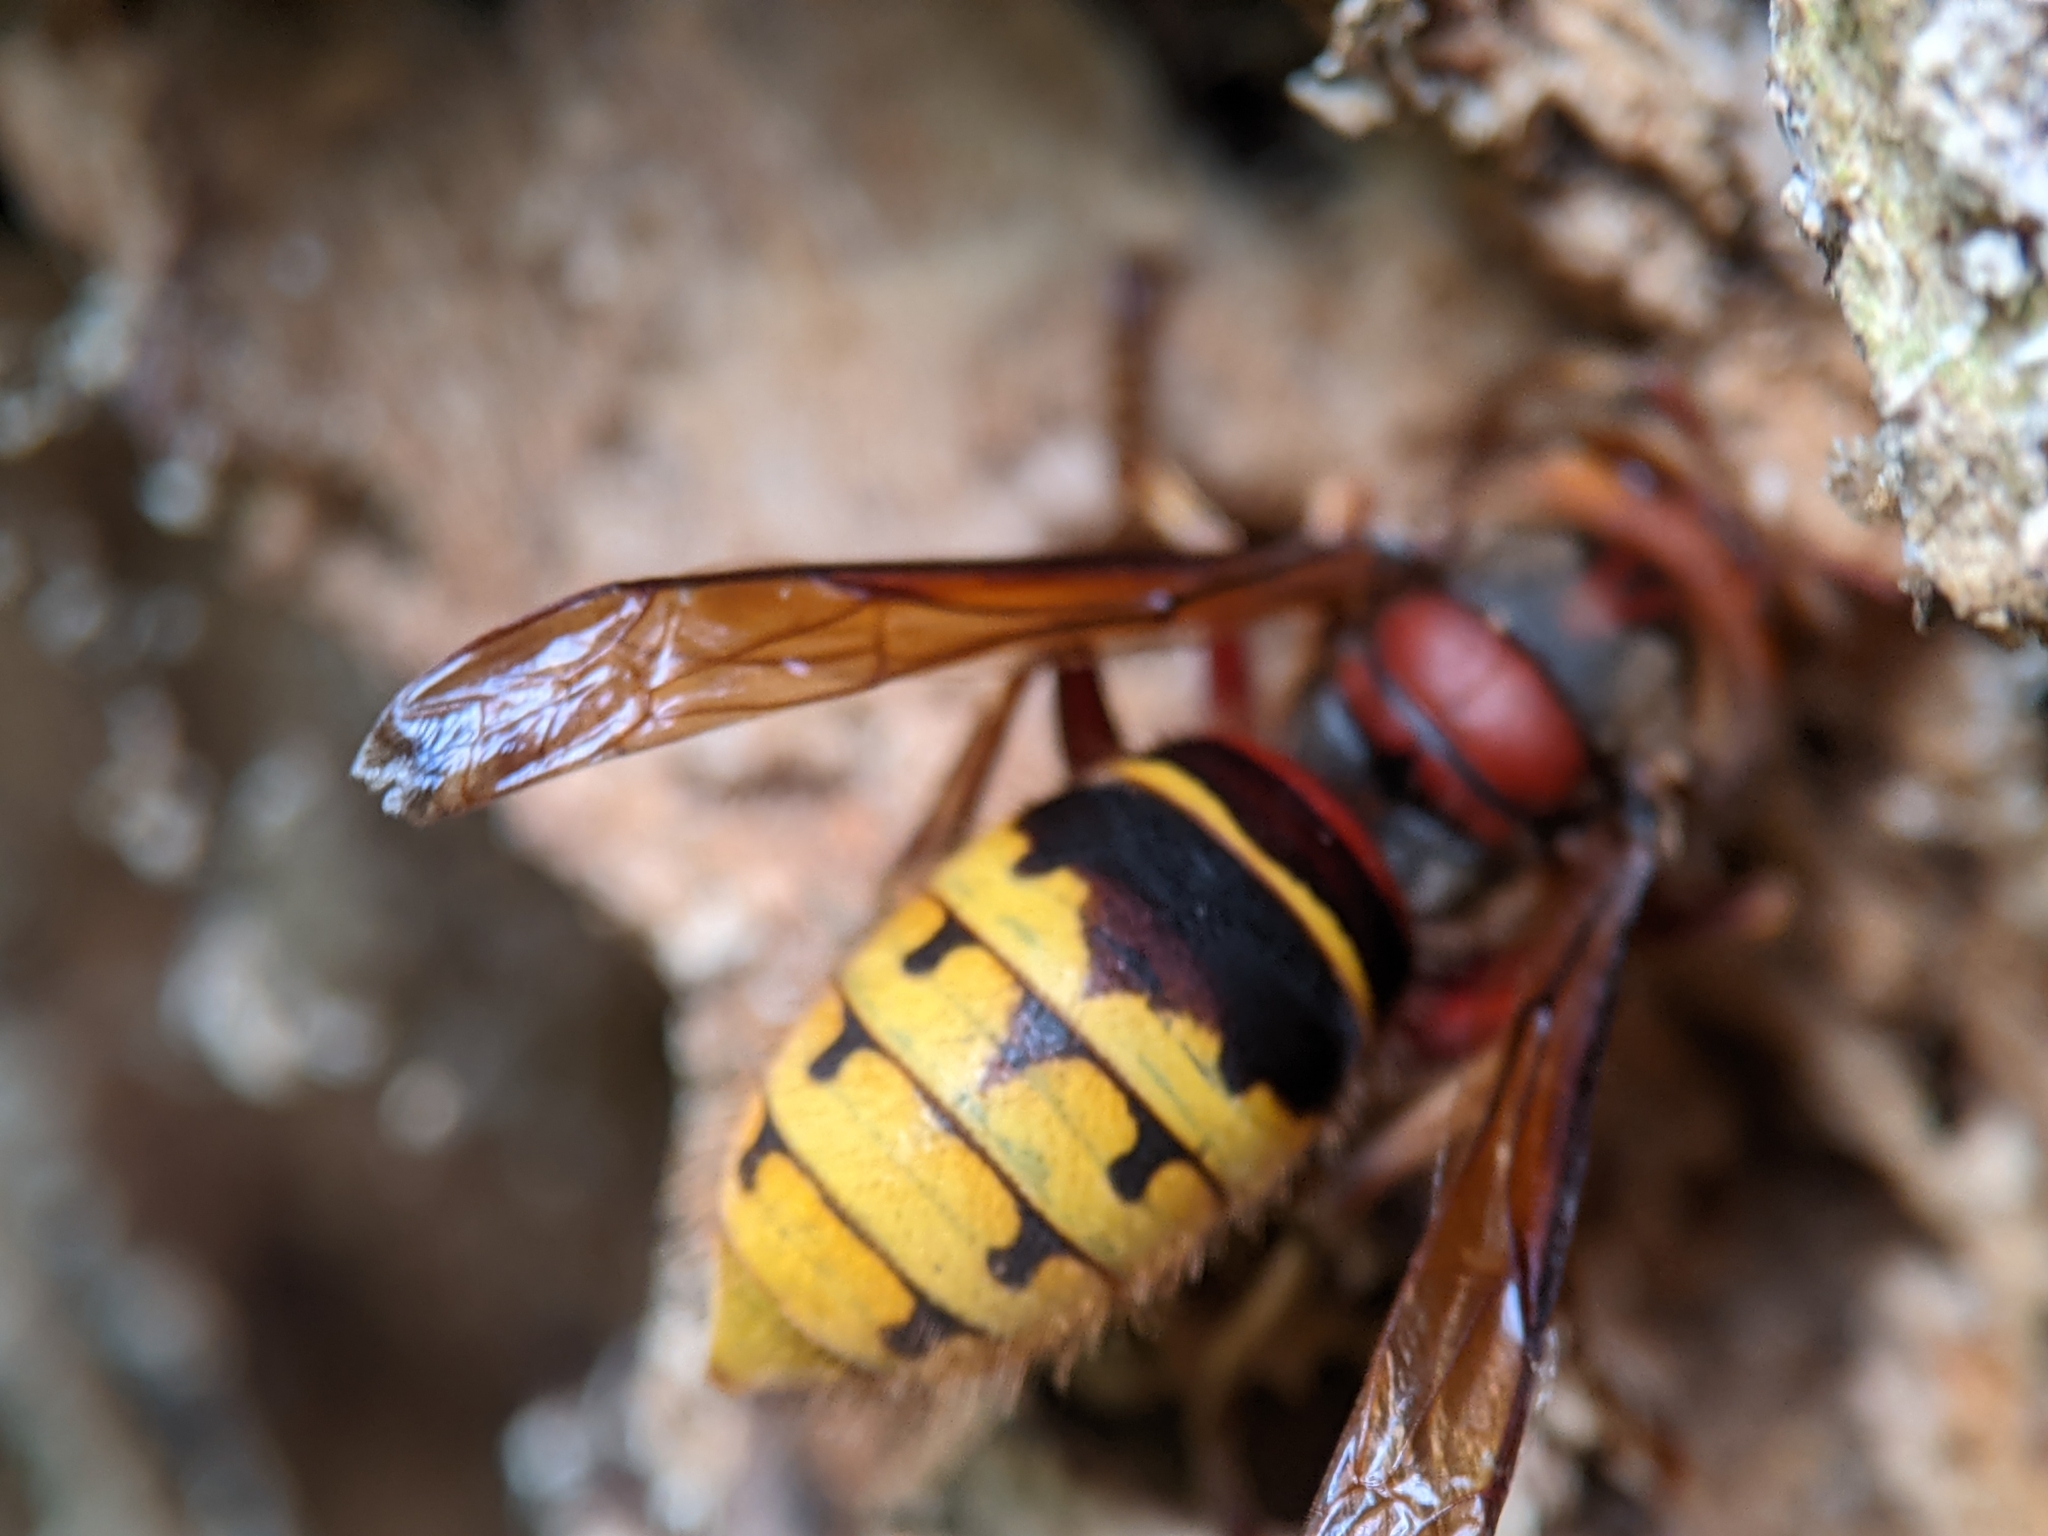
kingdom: Animalia
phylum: Arthropoda
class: Insecta
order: Hymenoptera
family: Vespidae
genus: Vespa
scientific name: Vespa crabro
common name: Hornet
